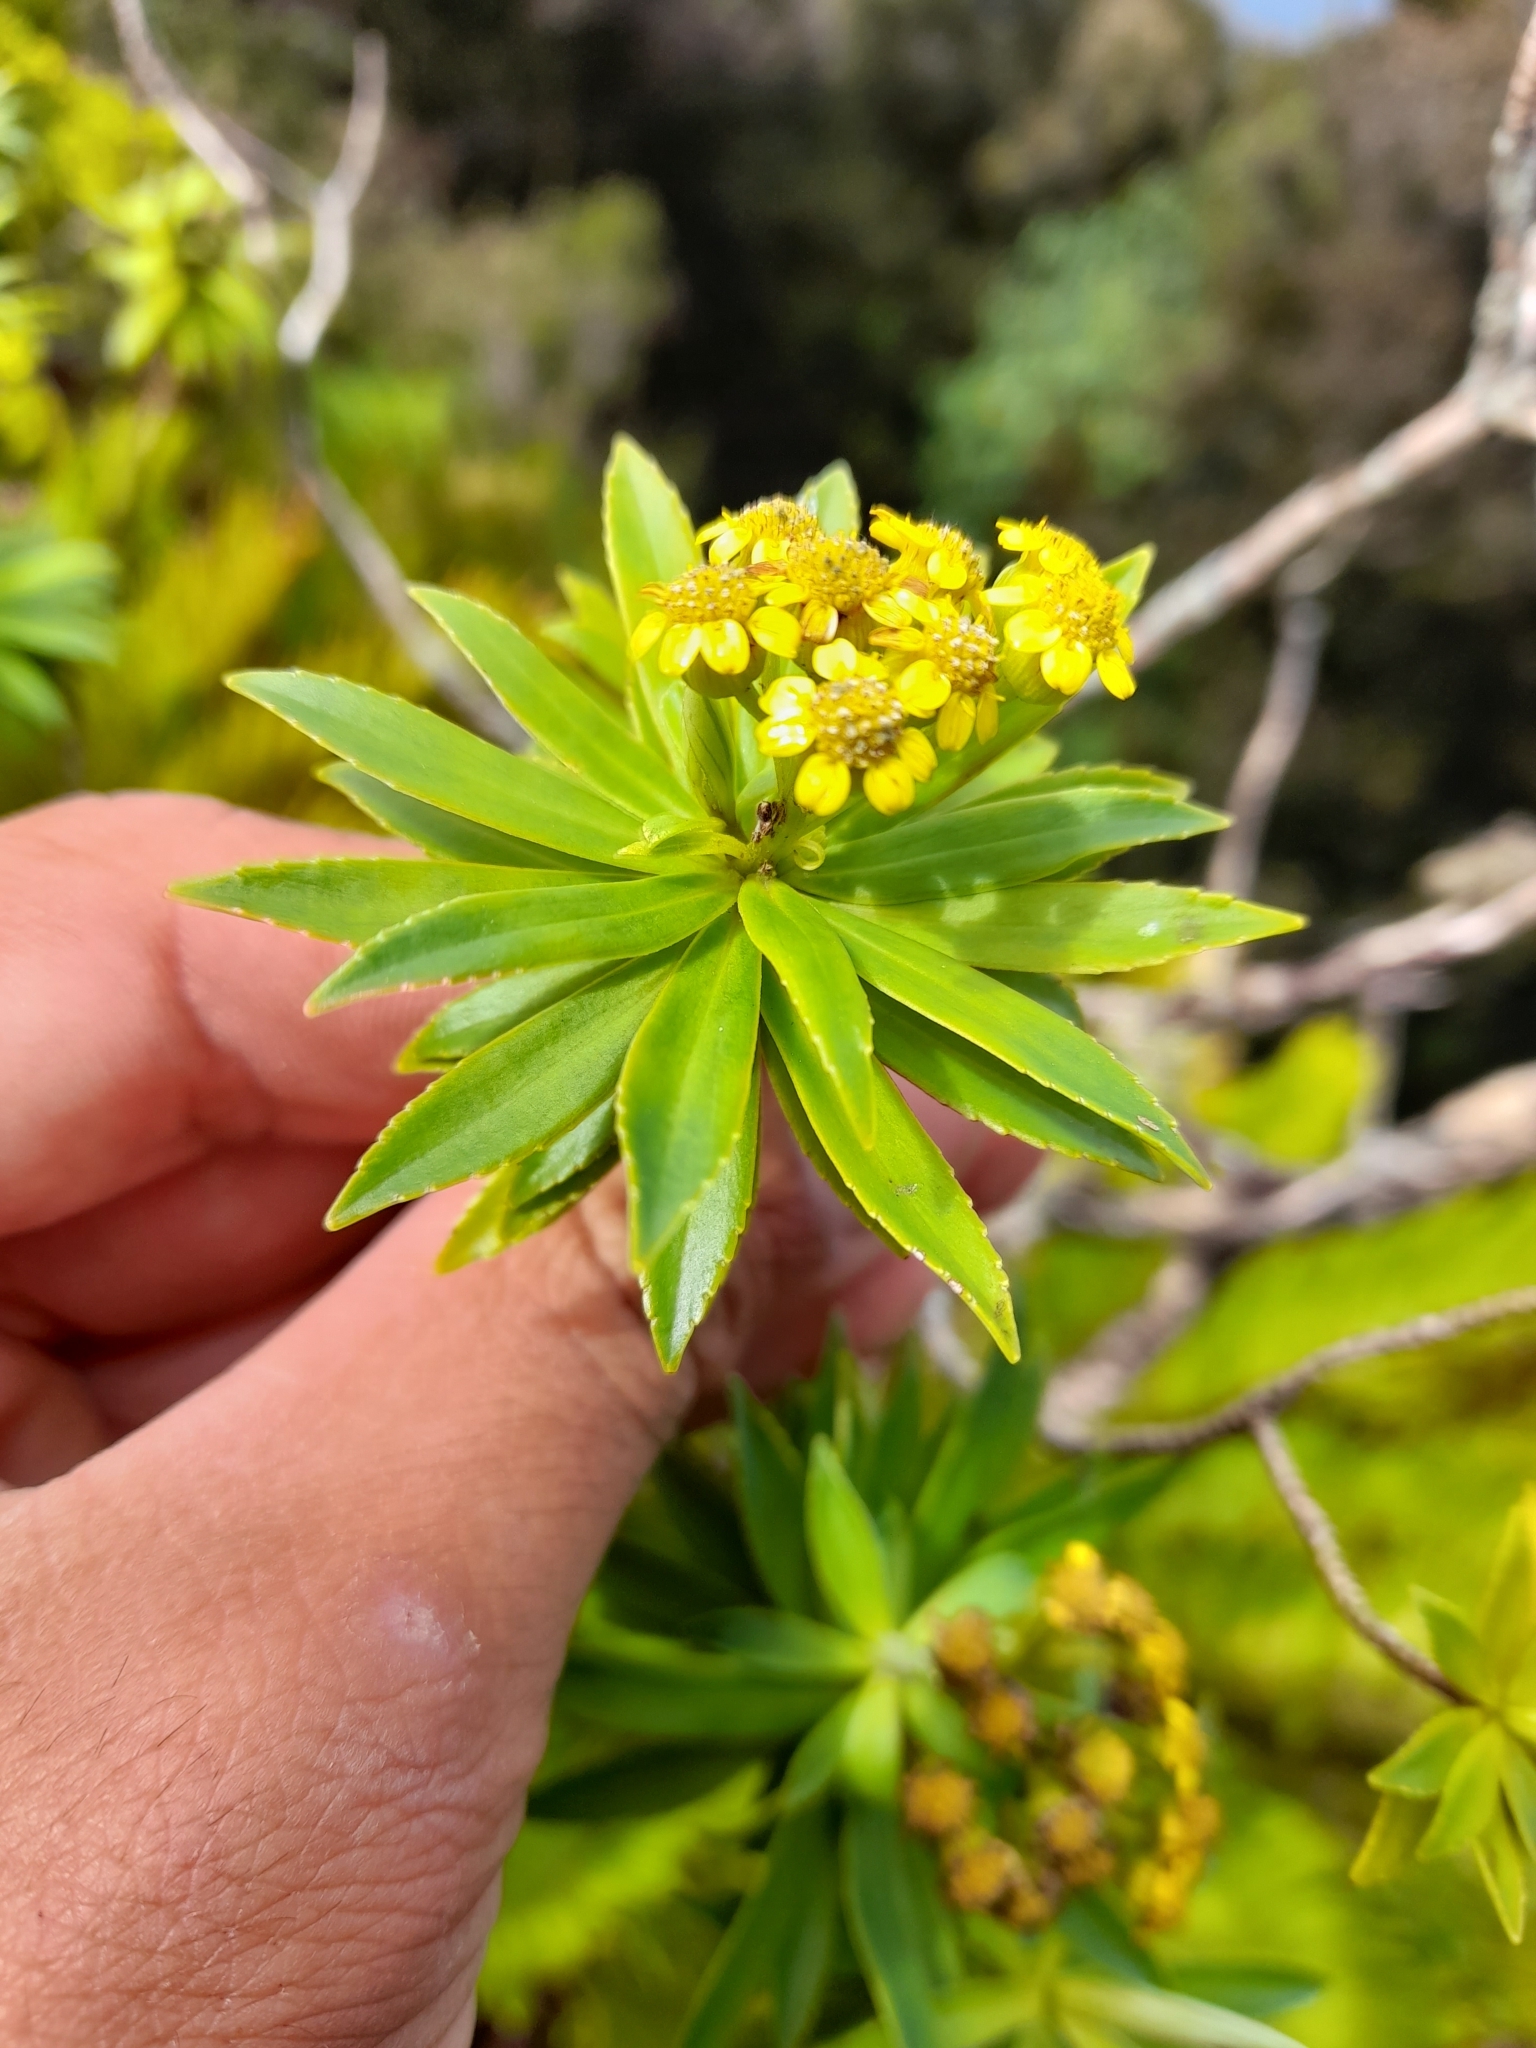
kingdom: Plantae
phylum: Tracheophyta
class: Magnoliopsida
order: Asterales
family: Asteraceae
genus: Robinsonia
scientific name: Robinsonia gracilis
